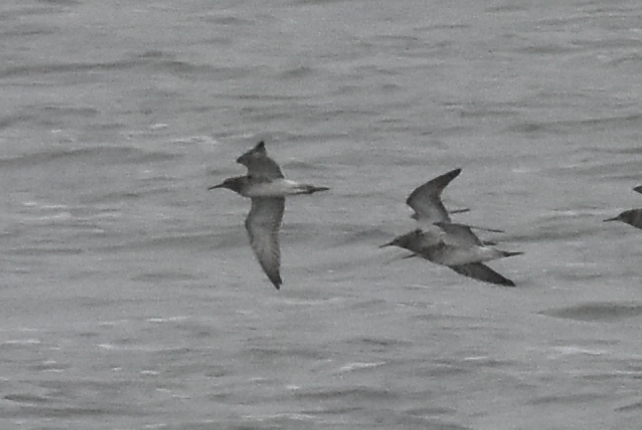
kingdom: Animalia
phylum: Chordata
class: Aves
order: Charadriiformes
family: Scolopacidae
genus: Calidris
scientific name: Calidris pugnax
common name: Ruff
